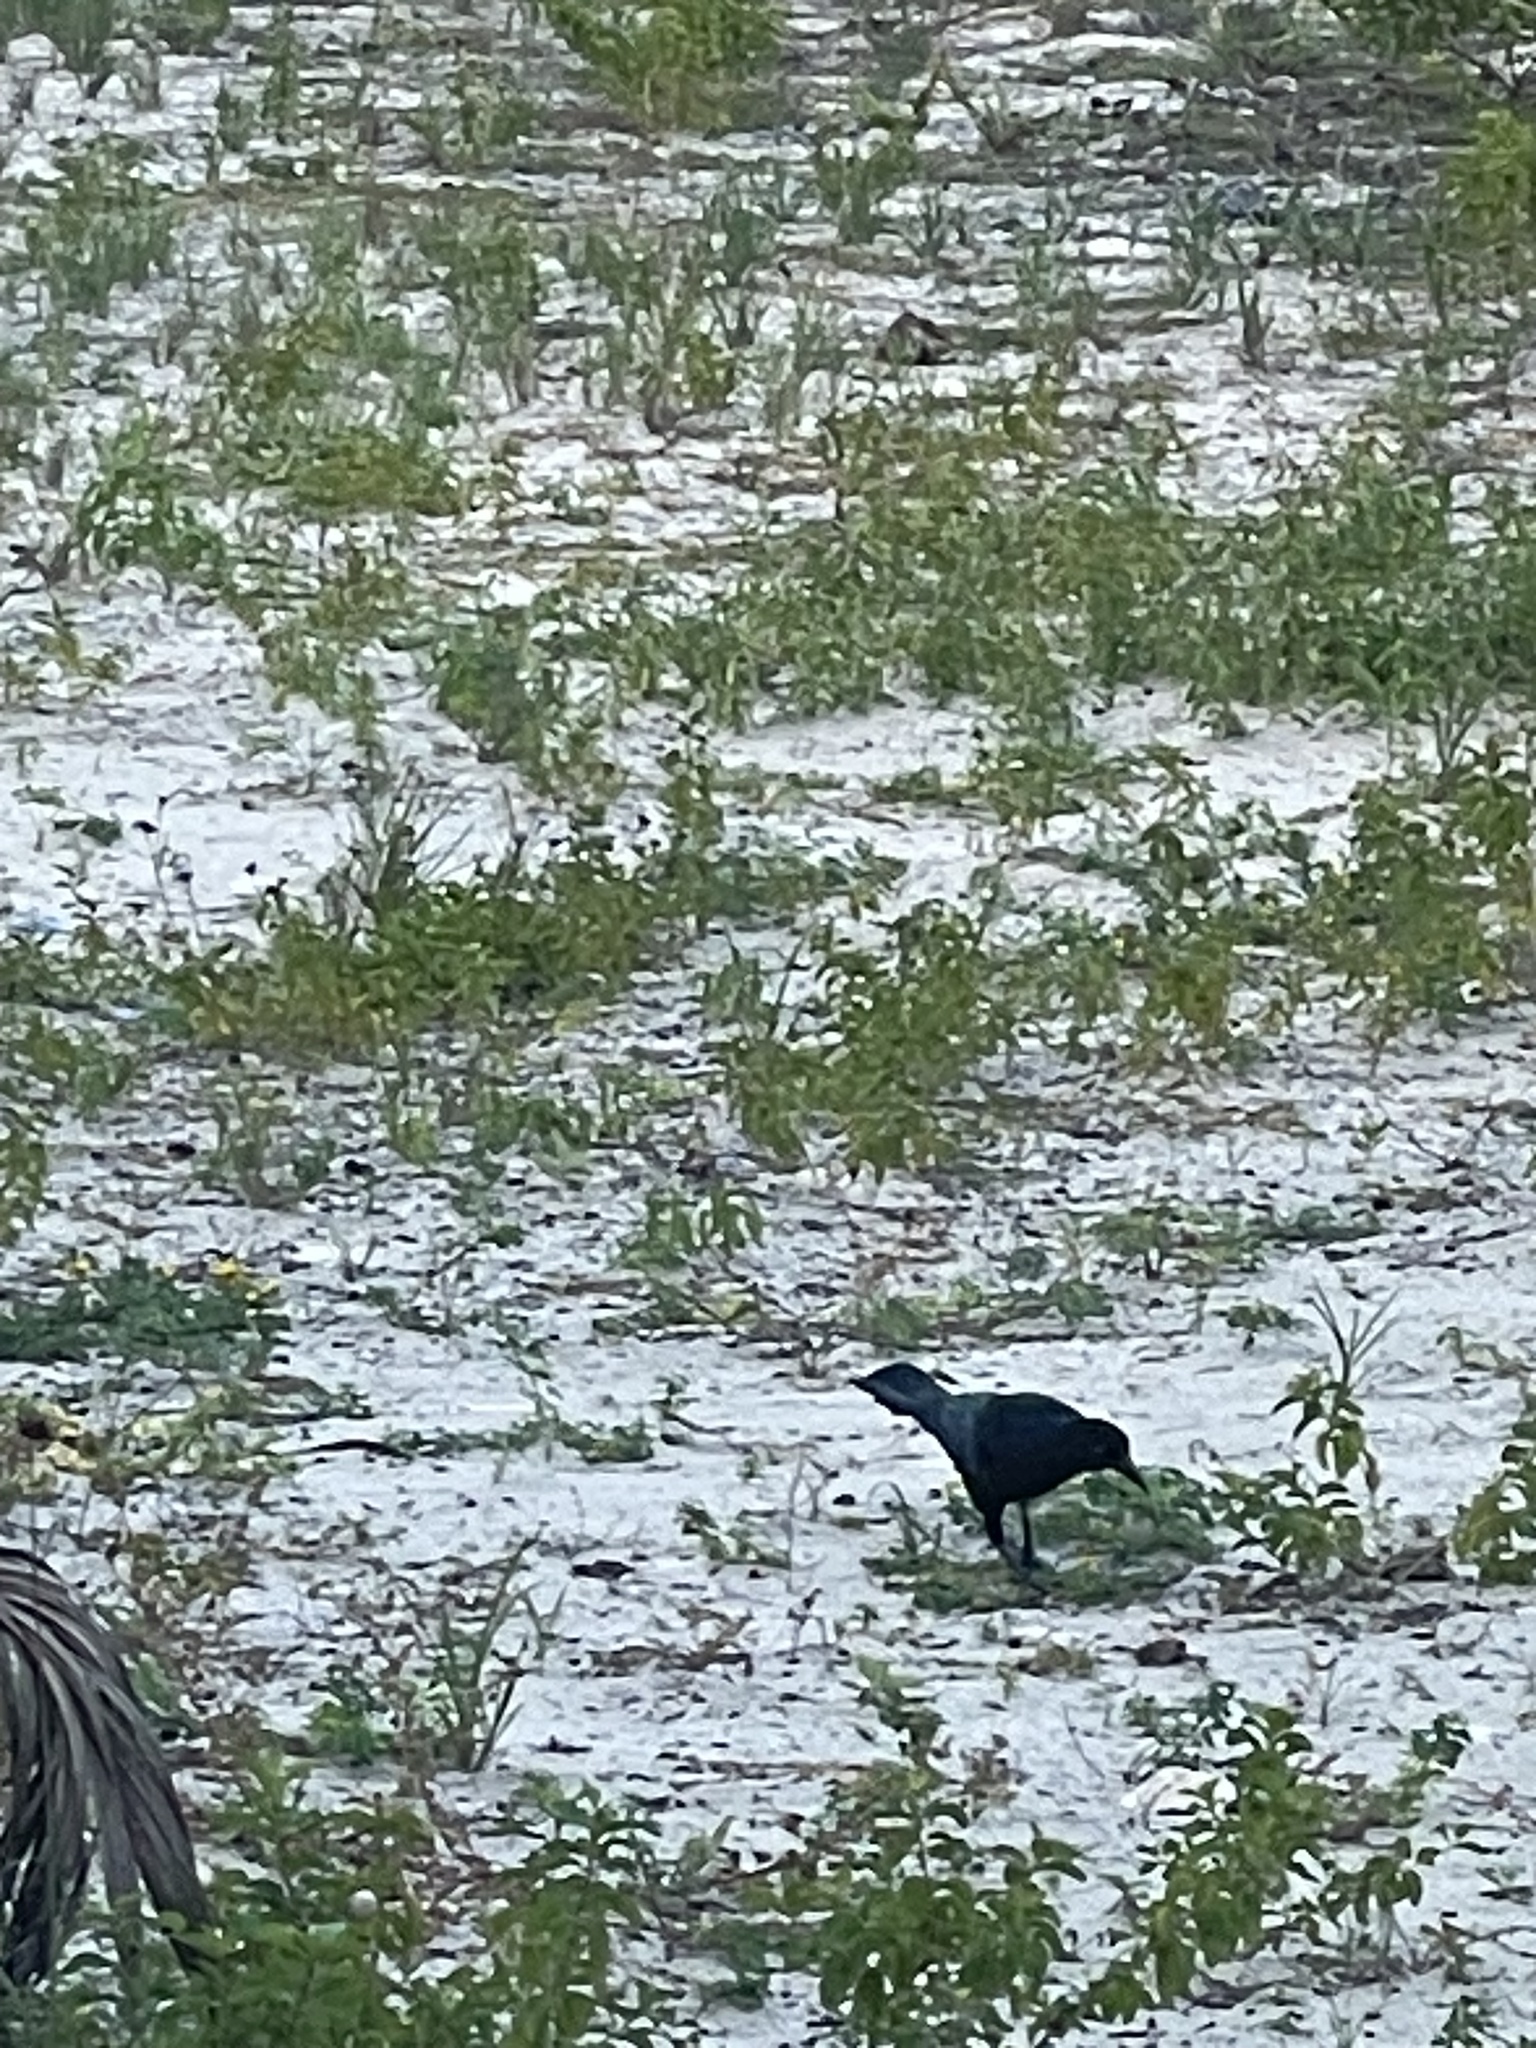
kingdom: Animalia
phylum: Chordata
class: Aves
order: Passeriformes
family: Icteridae
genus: Quiscalus
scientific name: Quiscalus mexicanus
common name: Great-tailed grackle
